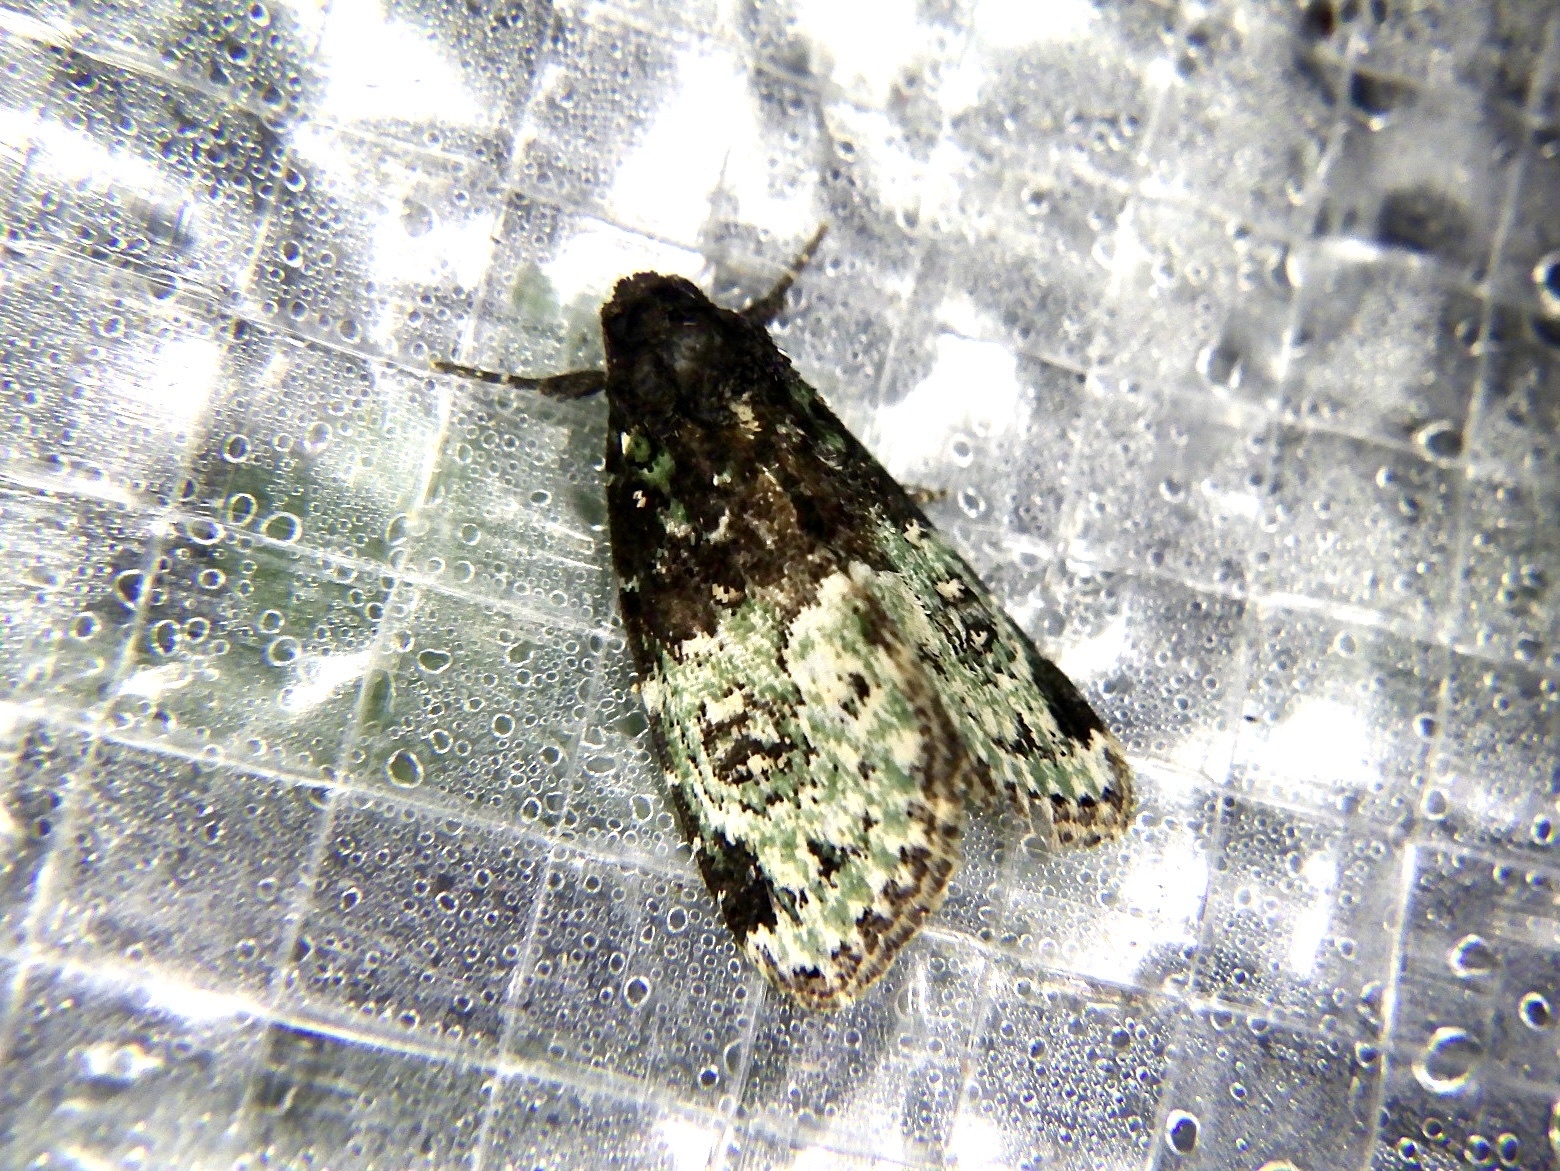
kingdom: Animalia
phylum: Arthropoda
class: Insecta
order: Lepidoptera
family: Noctuidae
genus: Bryomoia
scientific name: Bryomoia melachlora
